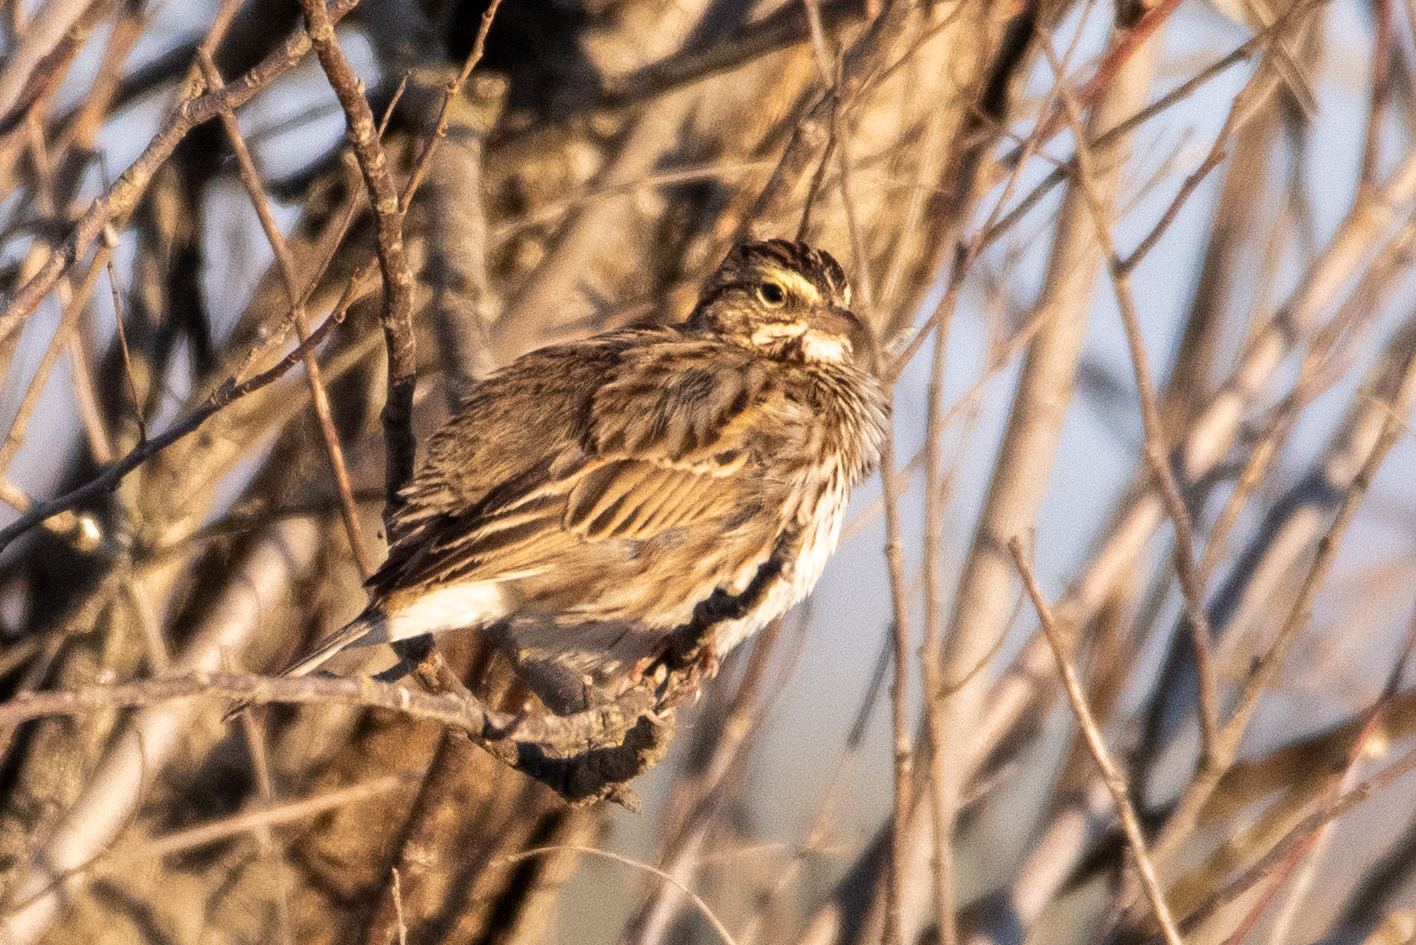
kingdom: Animalia
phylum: Chordata
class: Aves
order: Passeriformes
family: Passerellidae
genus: Passerculus
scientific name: Passerculus sandwichensis
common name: Savannah sparrow
